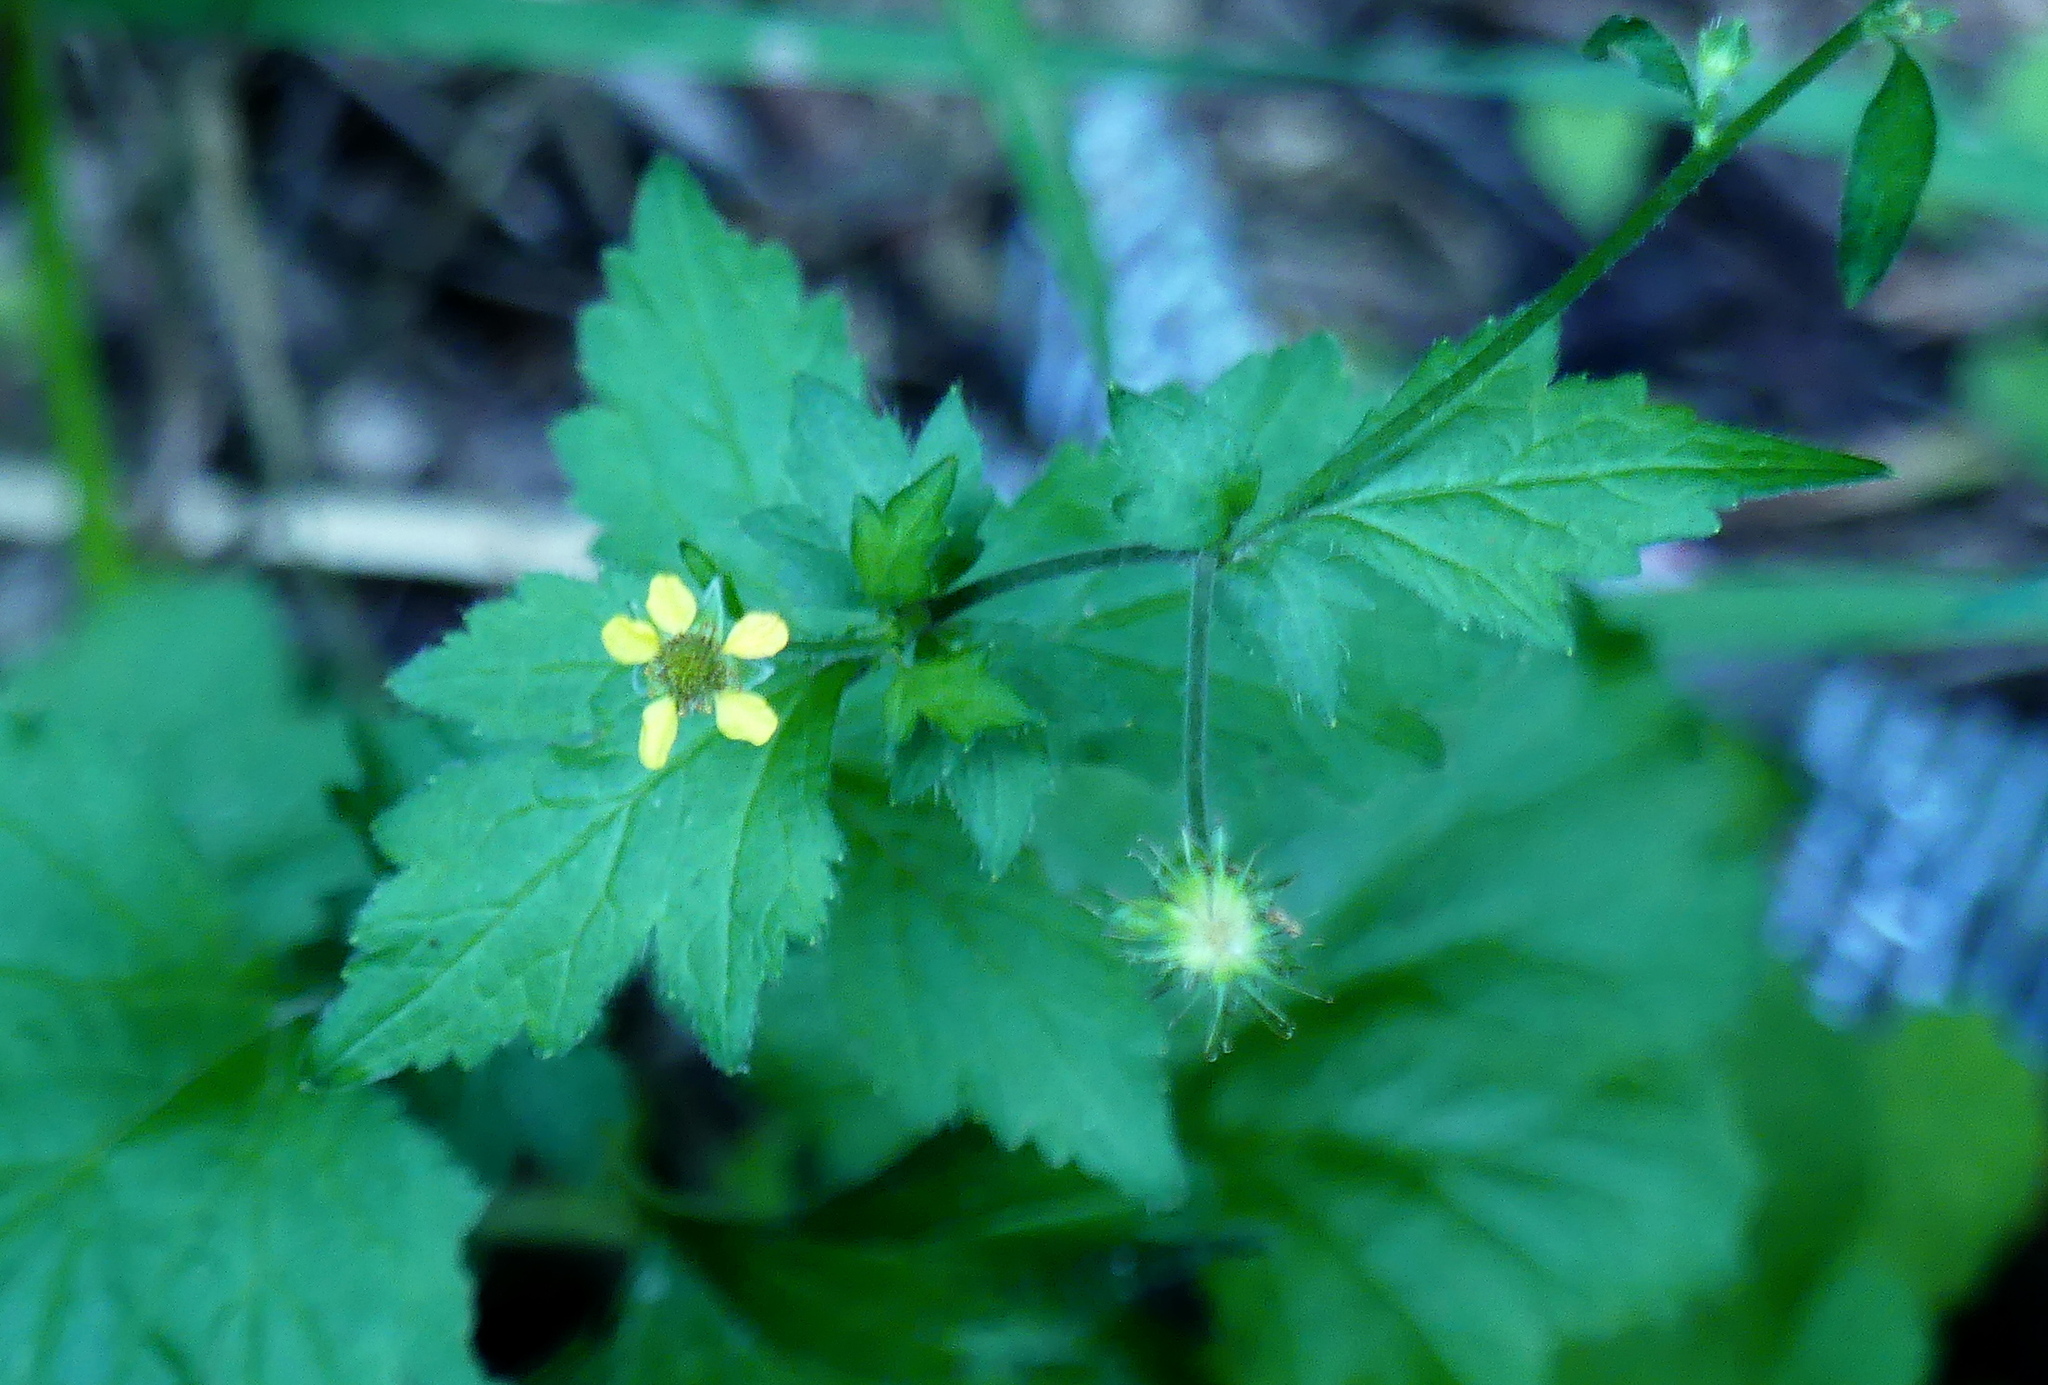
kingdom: Plantae
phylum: Tracheophyta
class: Magnoliopsida
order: Rosales
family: Rosaceae
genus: Geum
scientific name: Geum urbanum
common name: Wood avens
